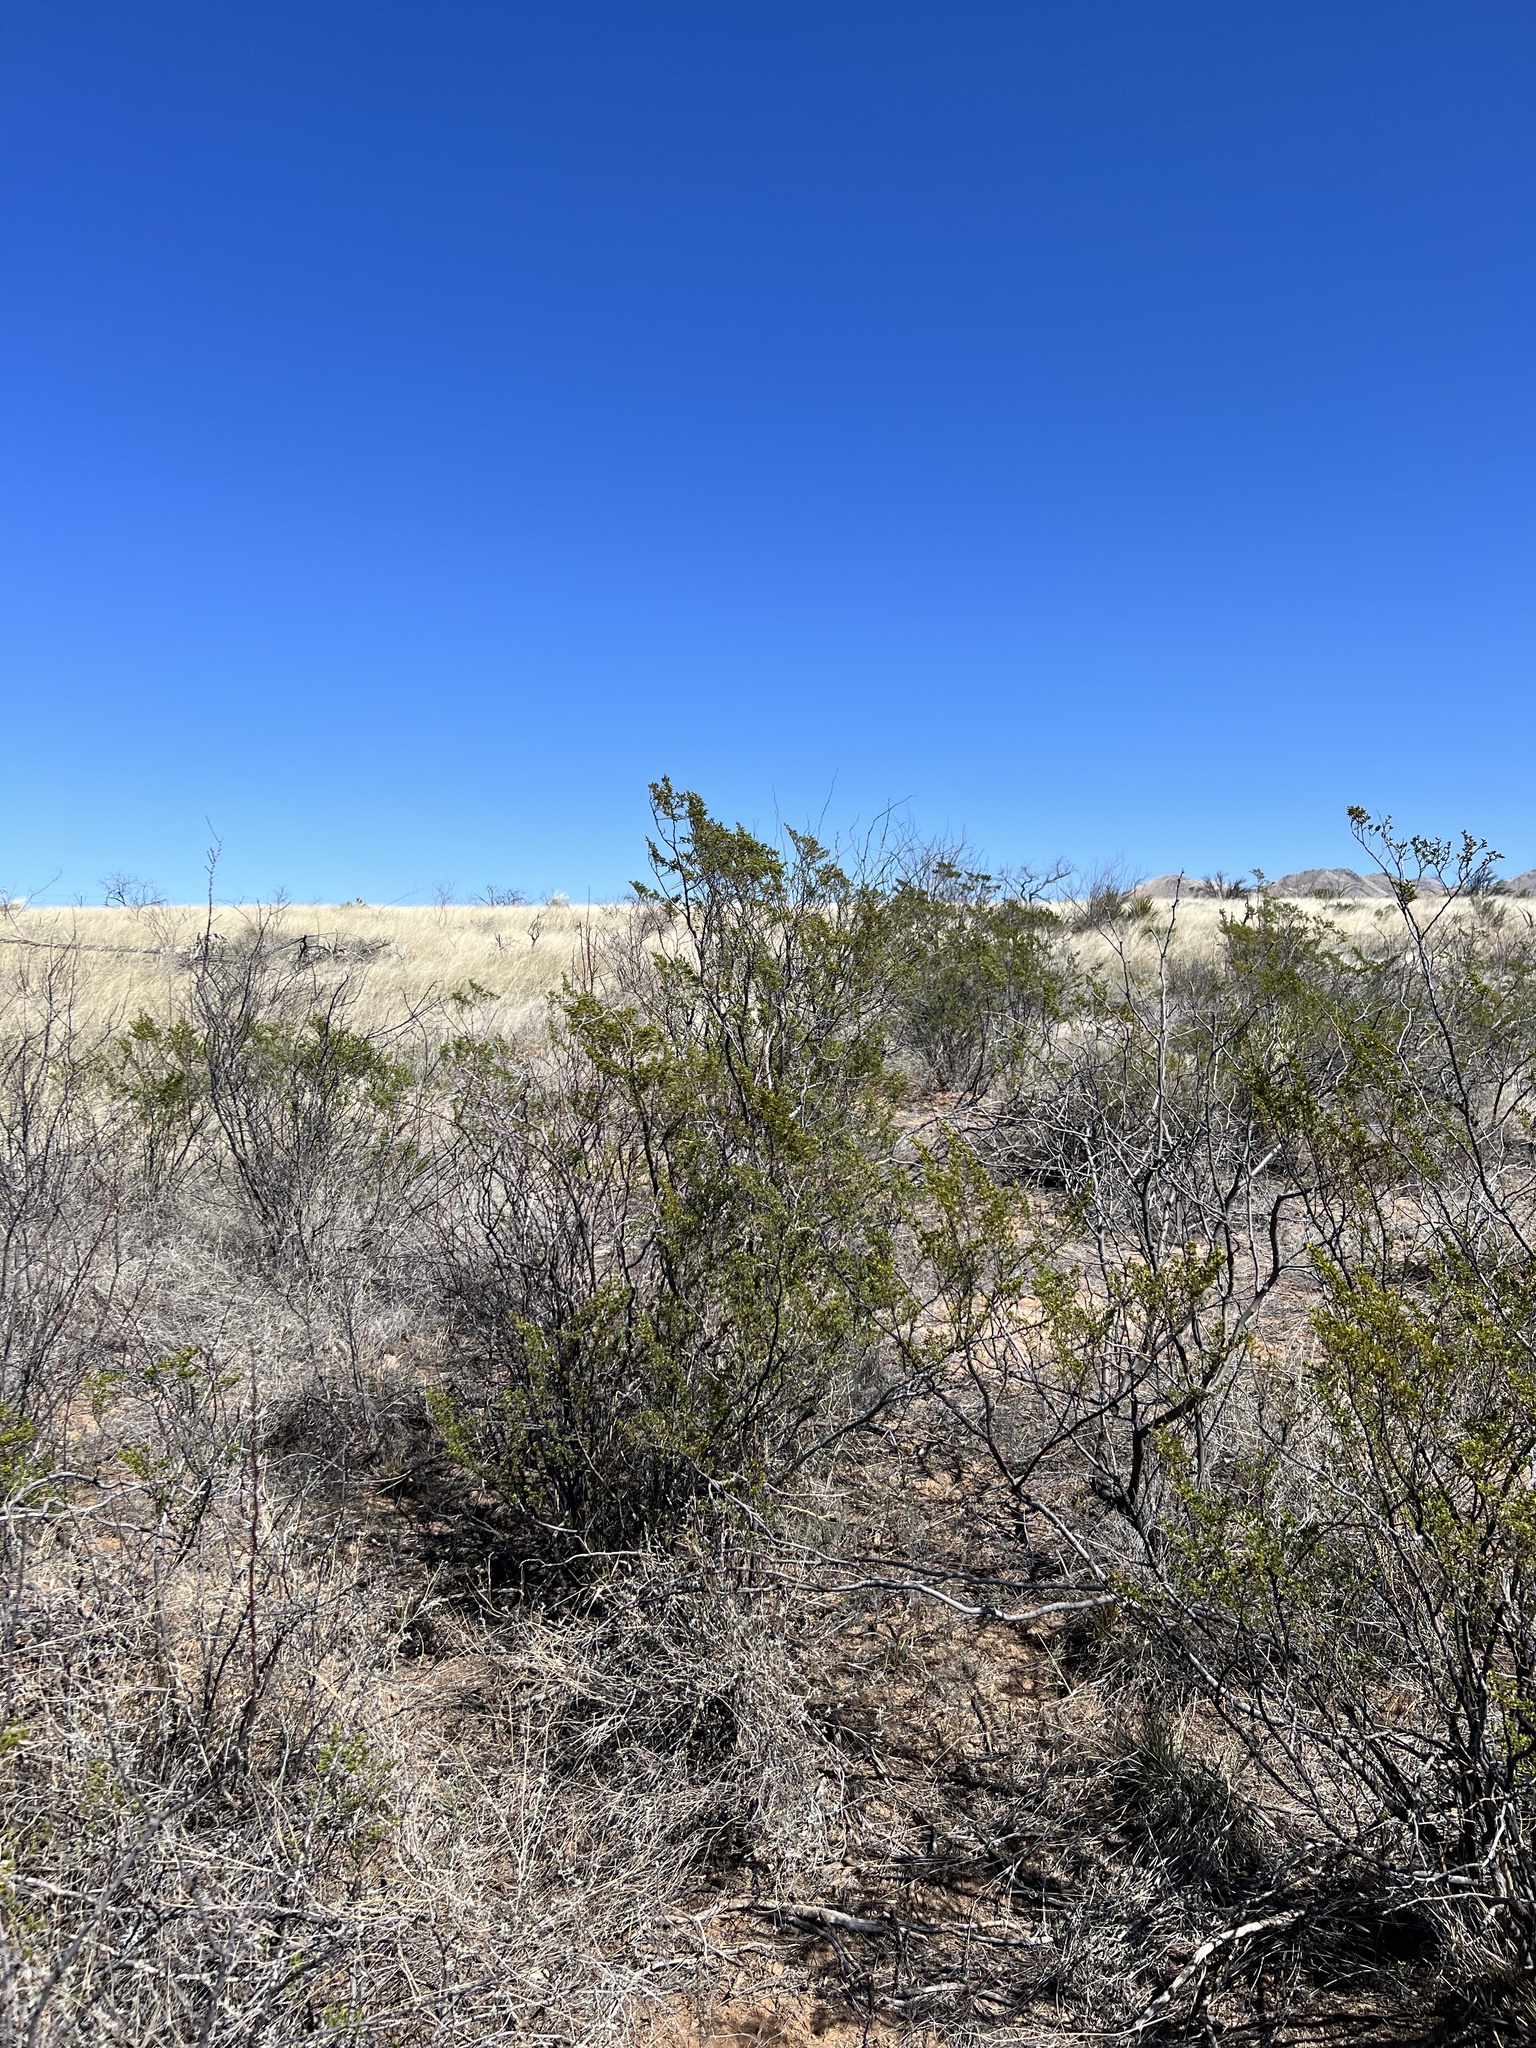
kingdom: Plantae
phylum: Tracheophyta
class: Magnoliopsida
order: Zygophyllales
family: Zygophyllaceae
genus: Larrea
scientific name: Larrea tridentata
